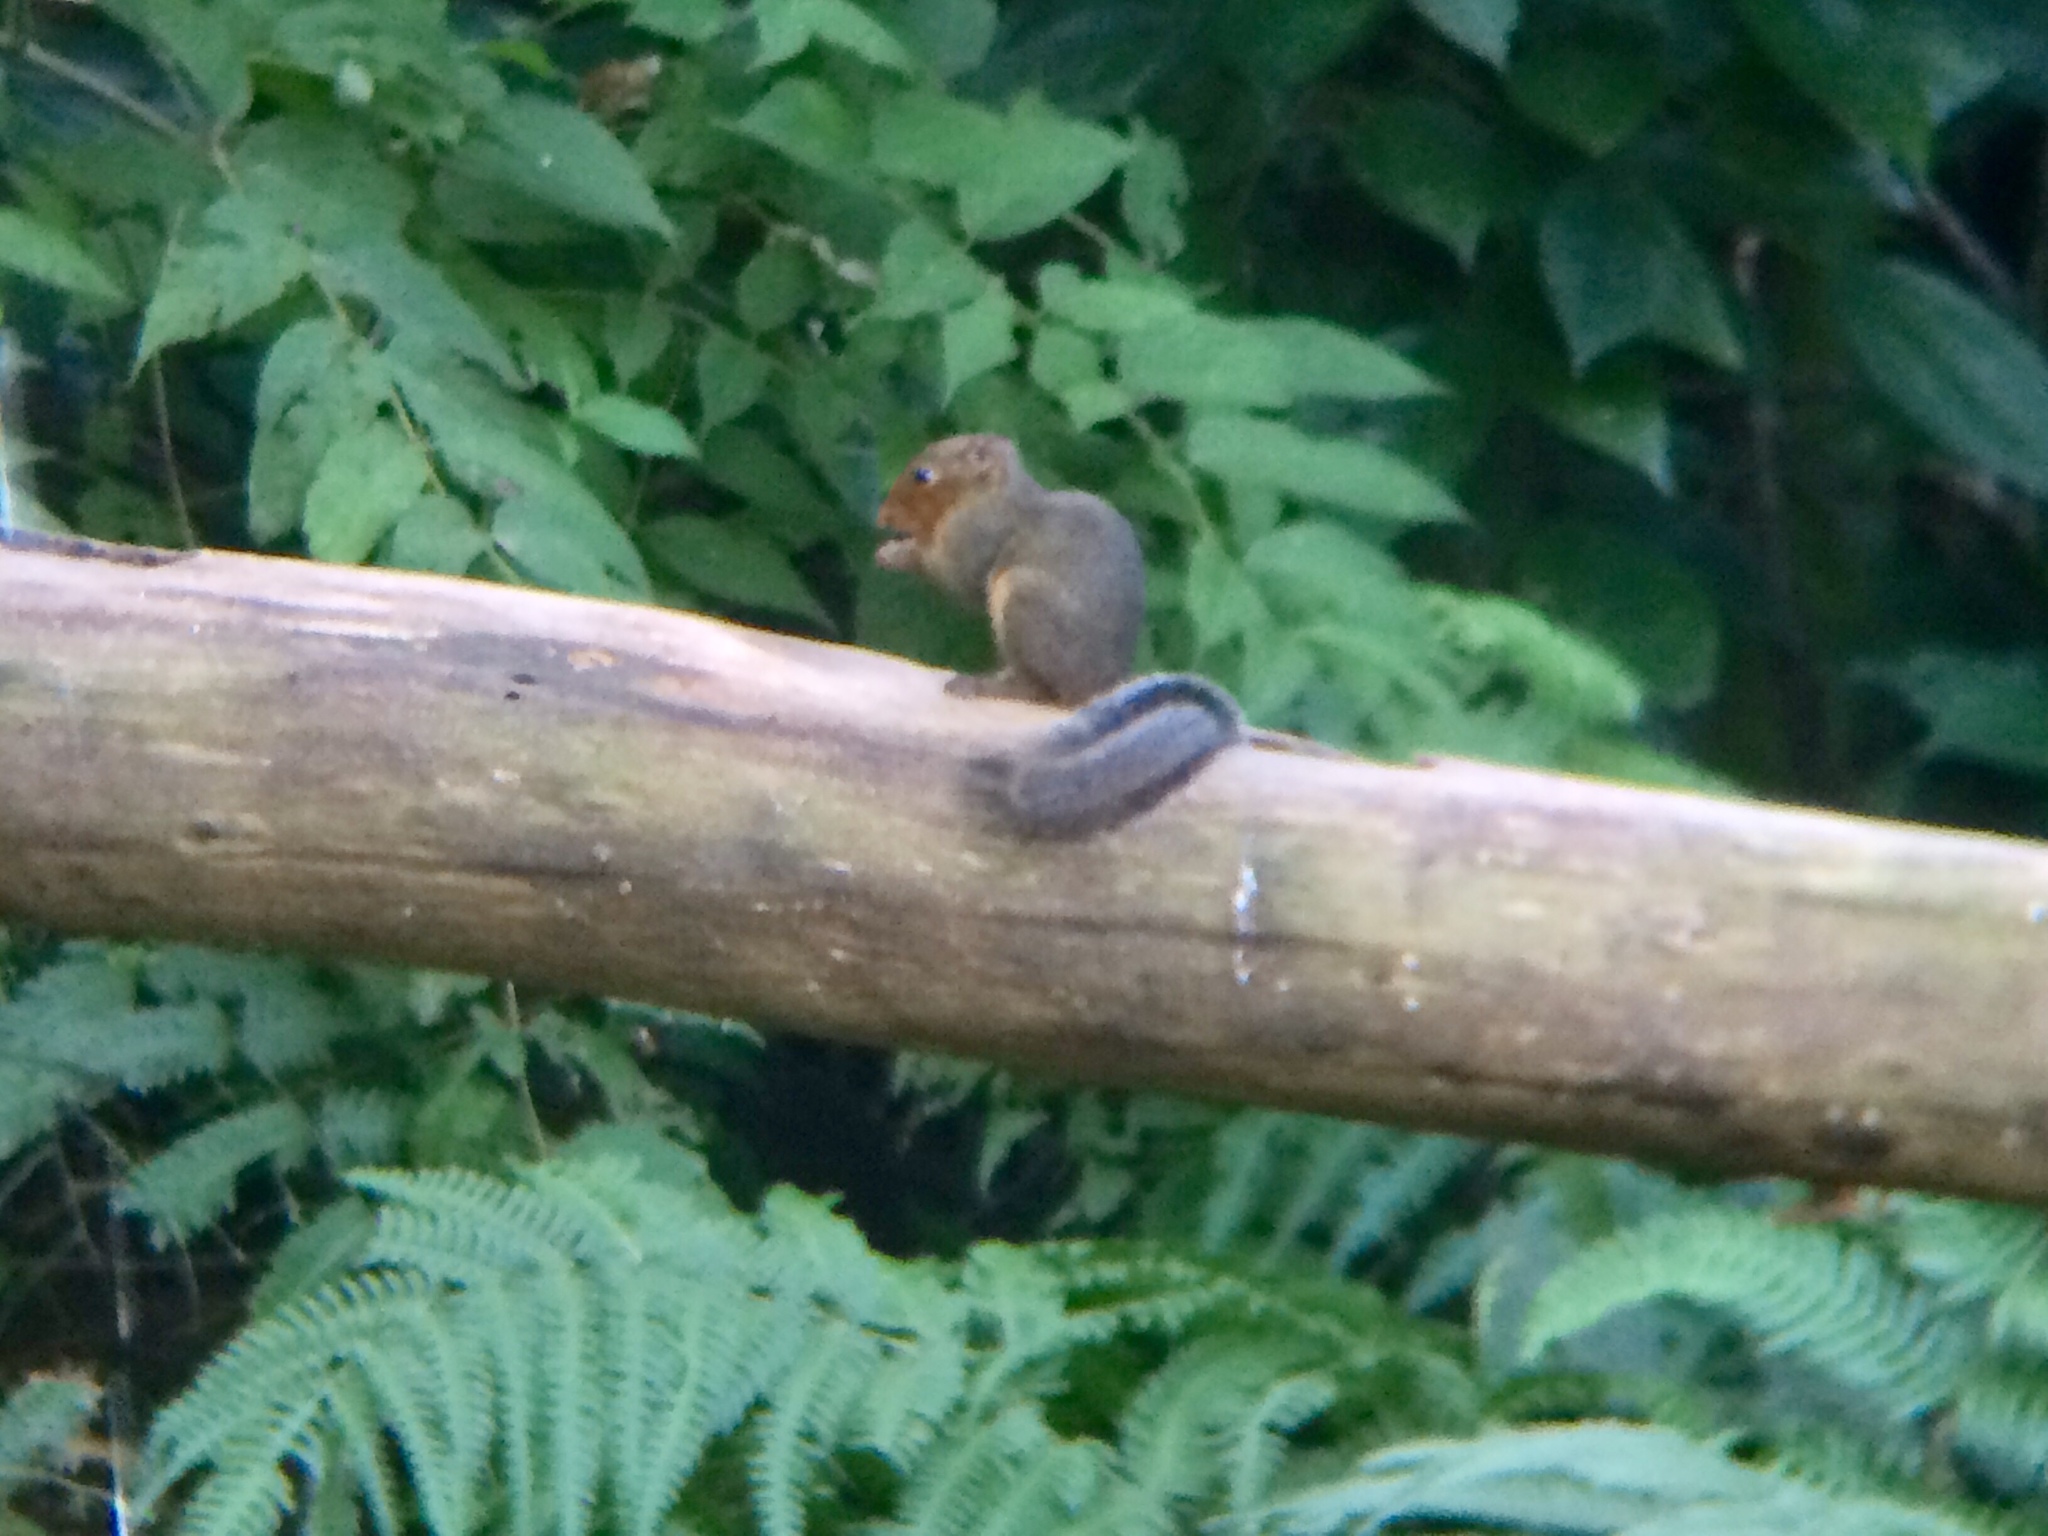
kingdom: Animalia
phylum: Chordata
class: Mammalia
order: Rodentia
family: Sciuridae
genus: Dremomys
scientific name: Dremomys rufigenis
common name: Asian red-cheeked squirrel
